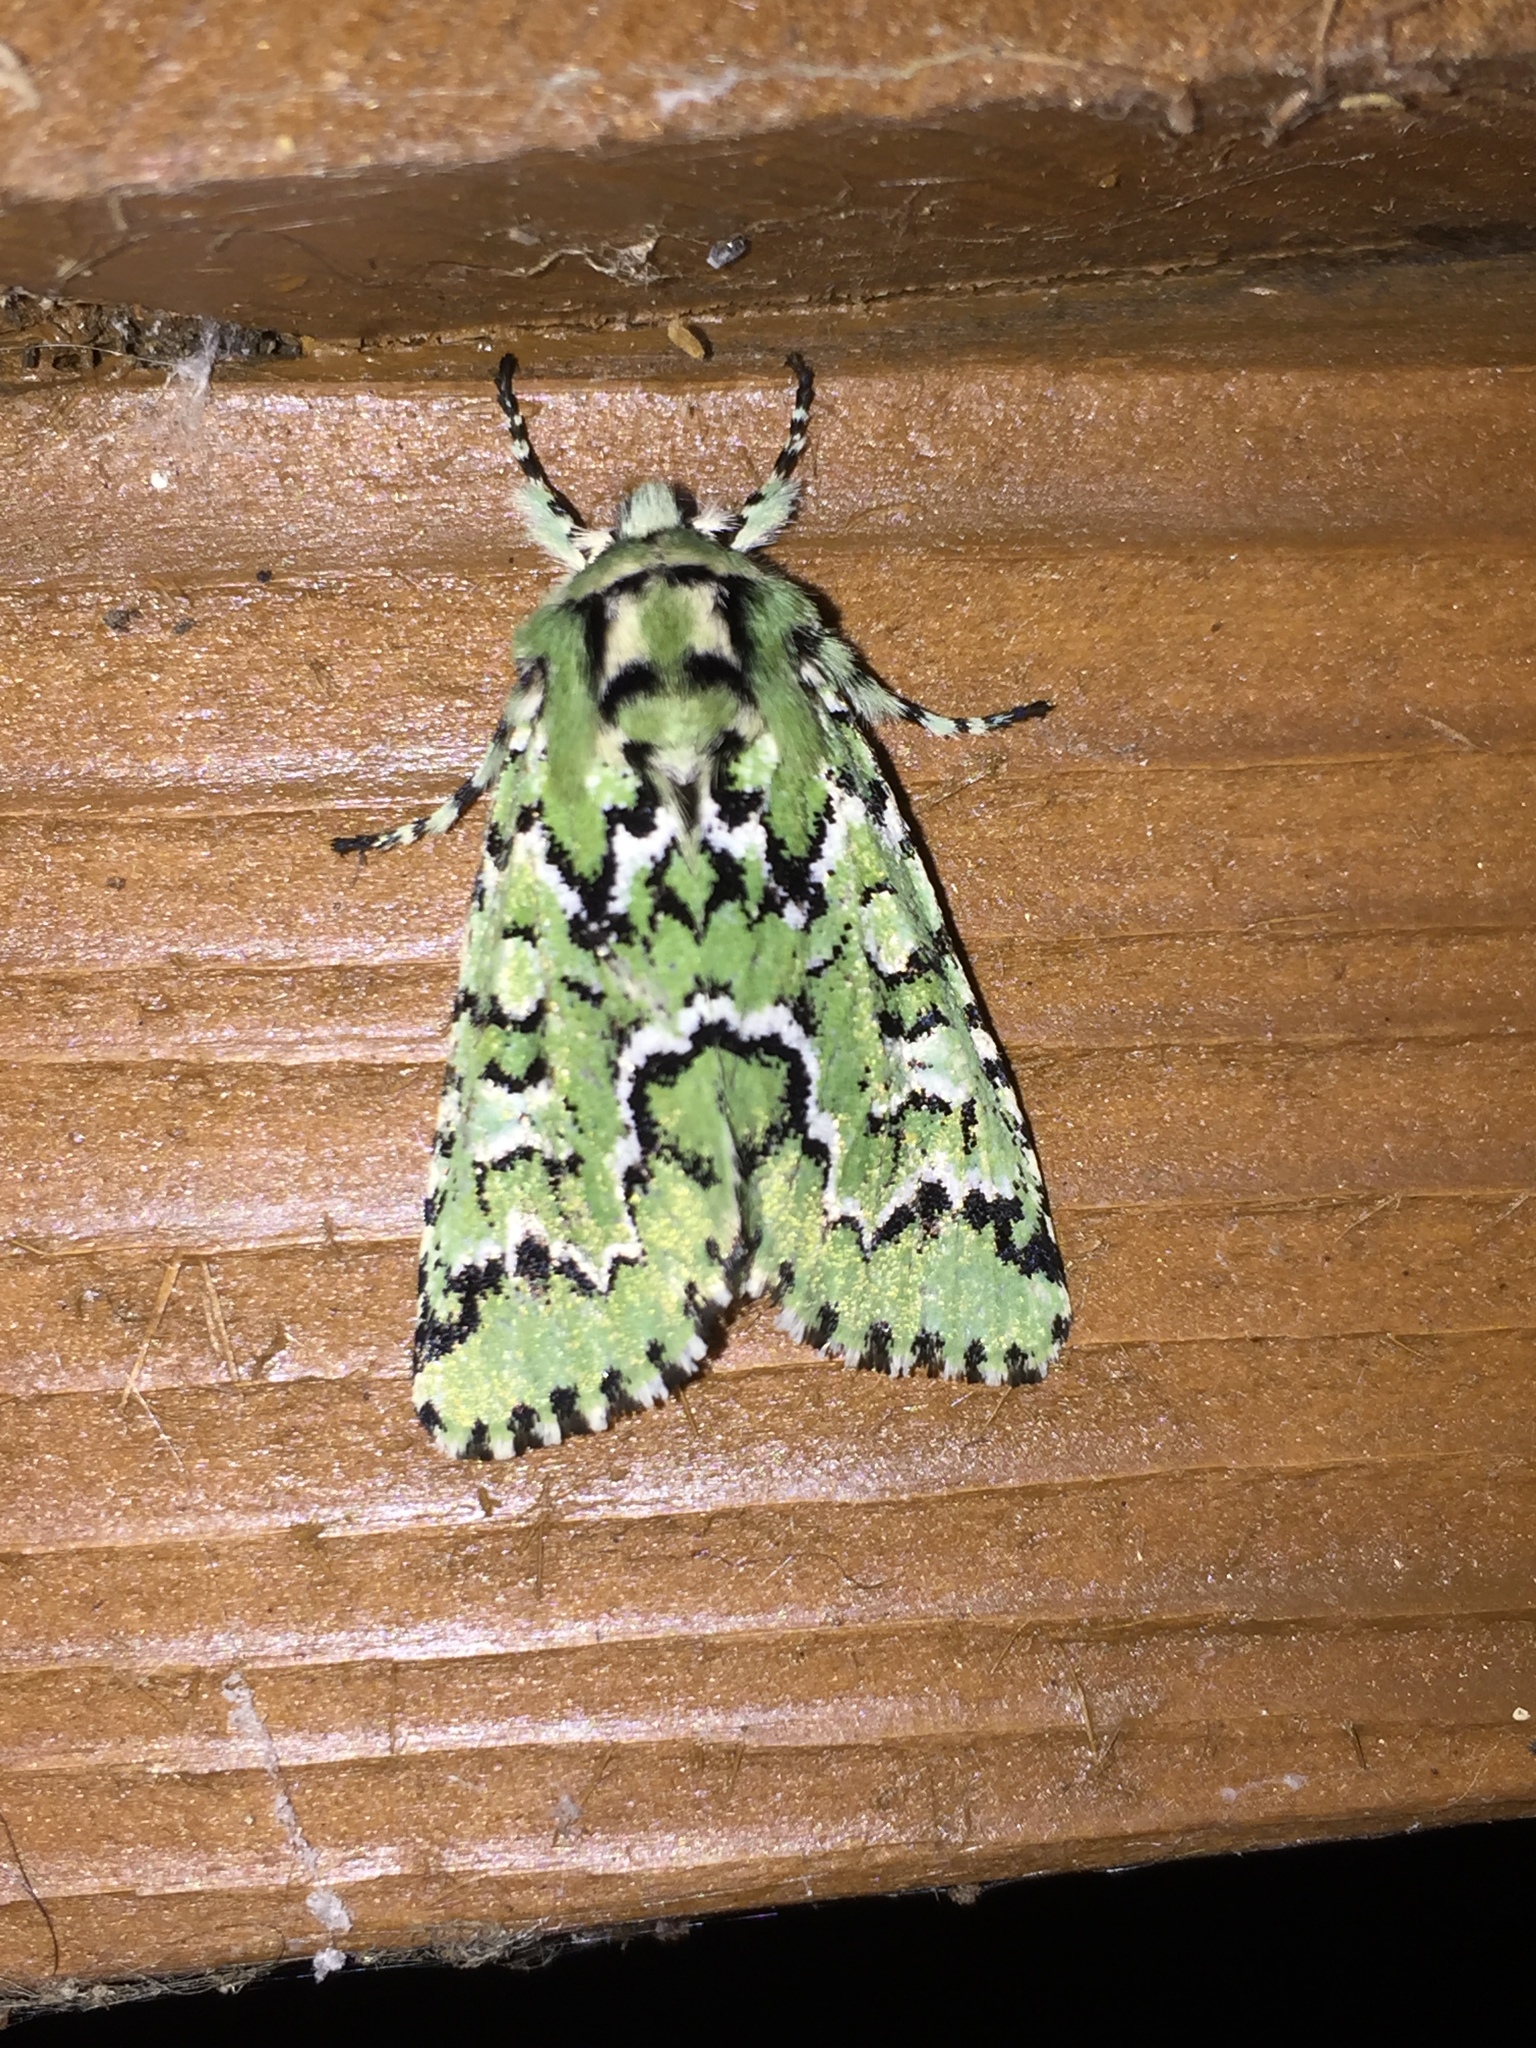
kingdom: Animalia
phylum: Arthropoda
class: Insecta
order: Lepidoptera
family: Noctuidae
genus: Feralia
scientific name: Feralia deceptiva
